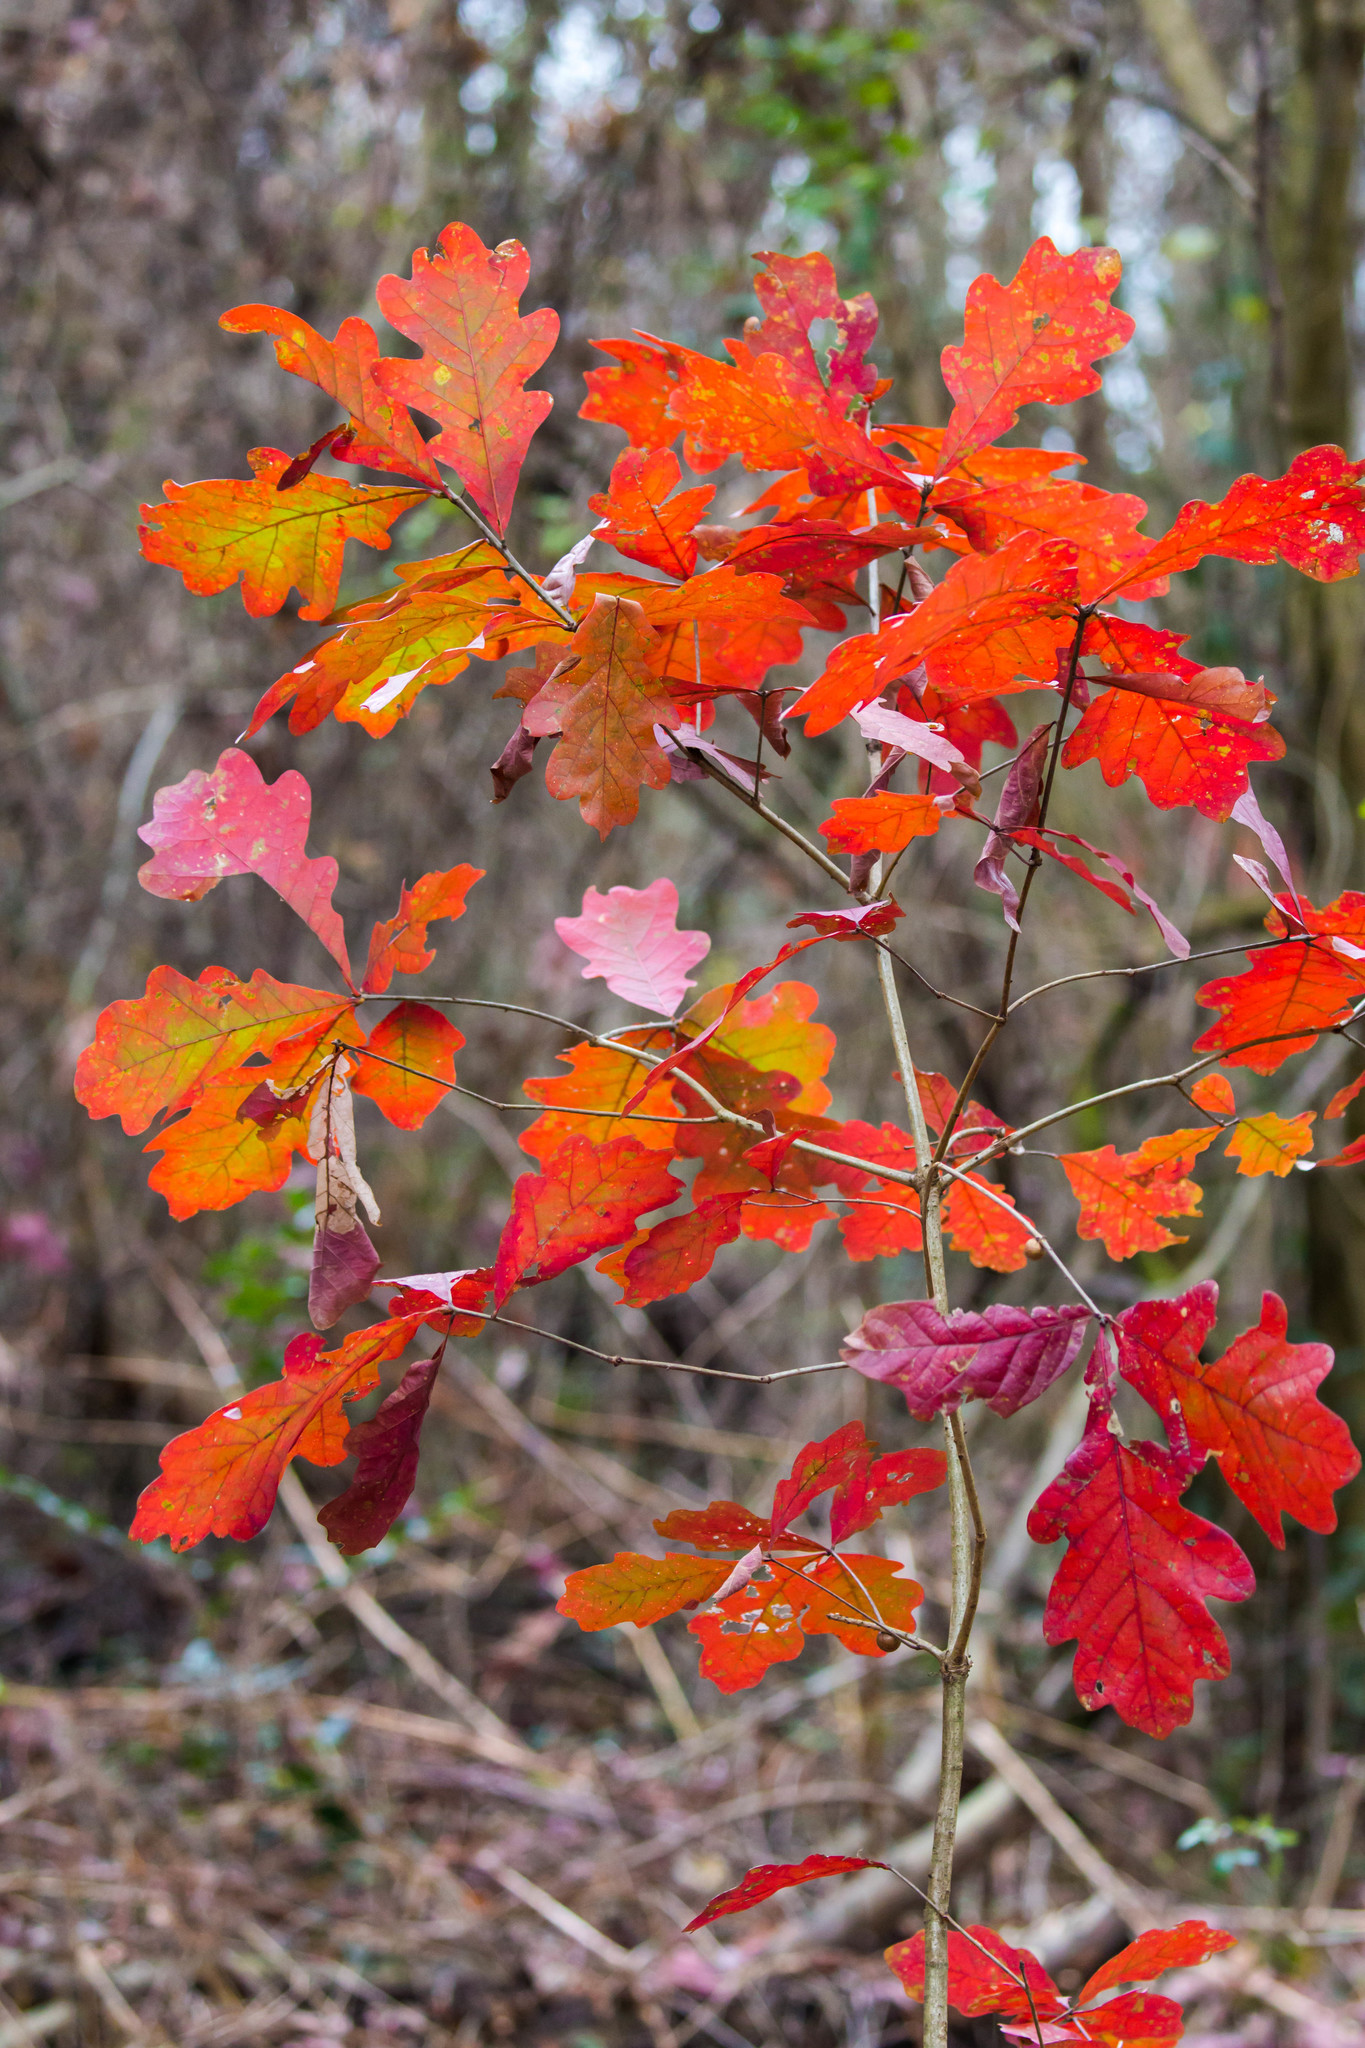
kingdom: Plantae
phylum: Tracheophyta
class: Magnoliopsida
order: Fagales
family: Fagaceae
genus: Quercus
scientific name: Quercus alba
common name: White oak
